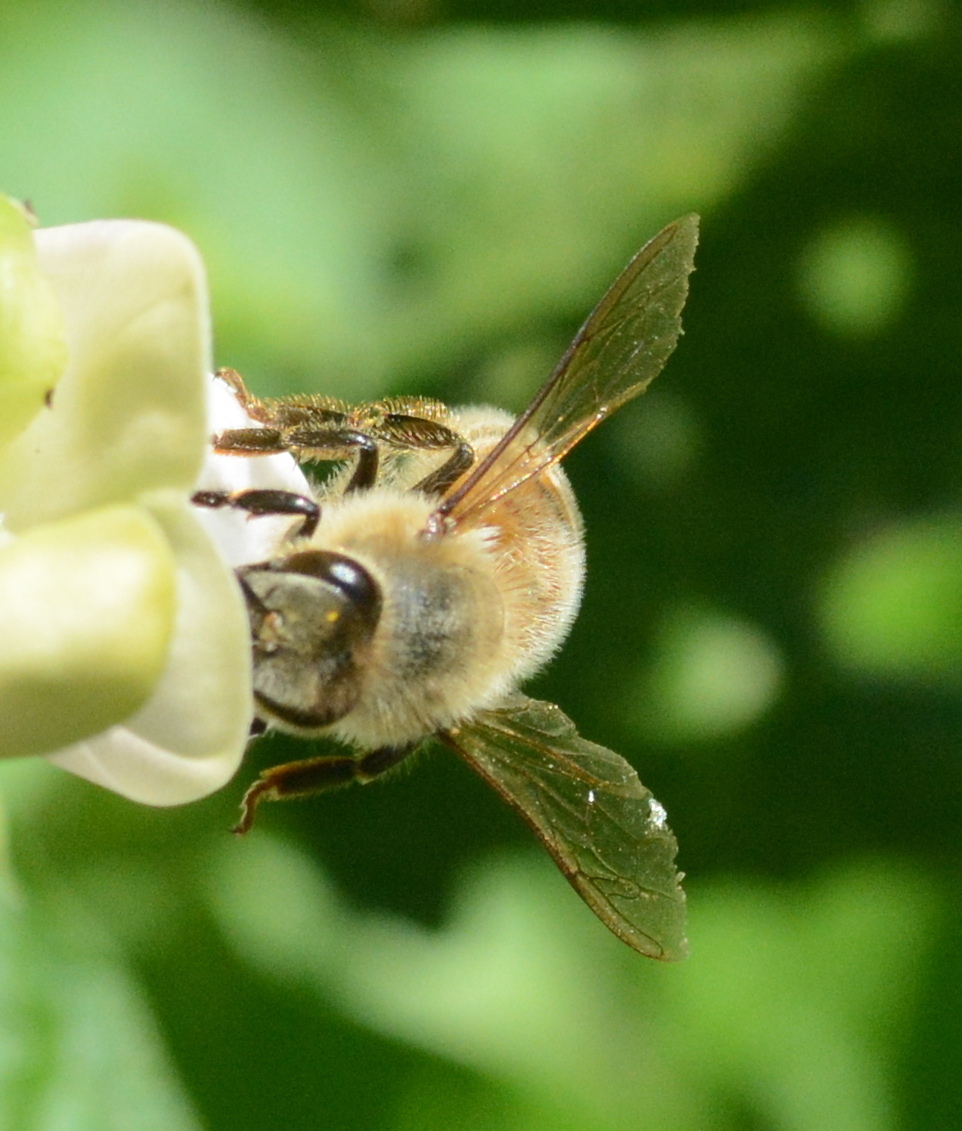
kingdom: Animalia
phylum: Arthropoda
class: Insecta
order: Hymenoptera
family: Apidae
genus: Apis
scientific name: Apis mellifera
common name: Honey bee
